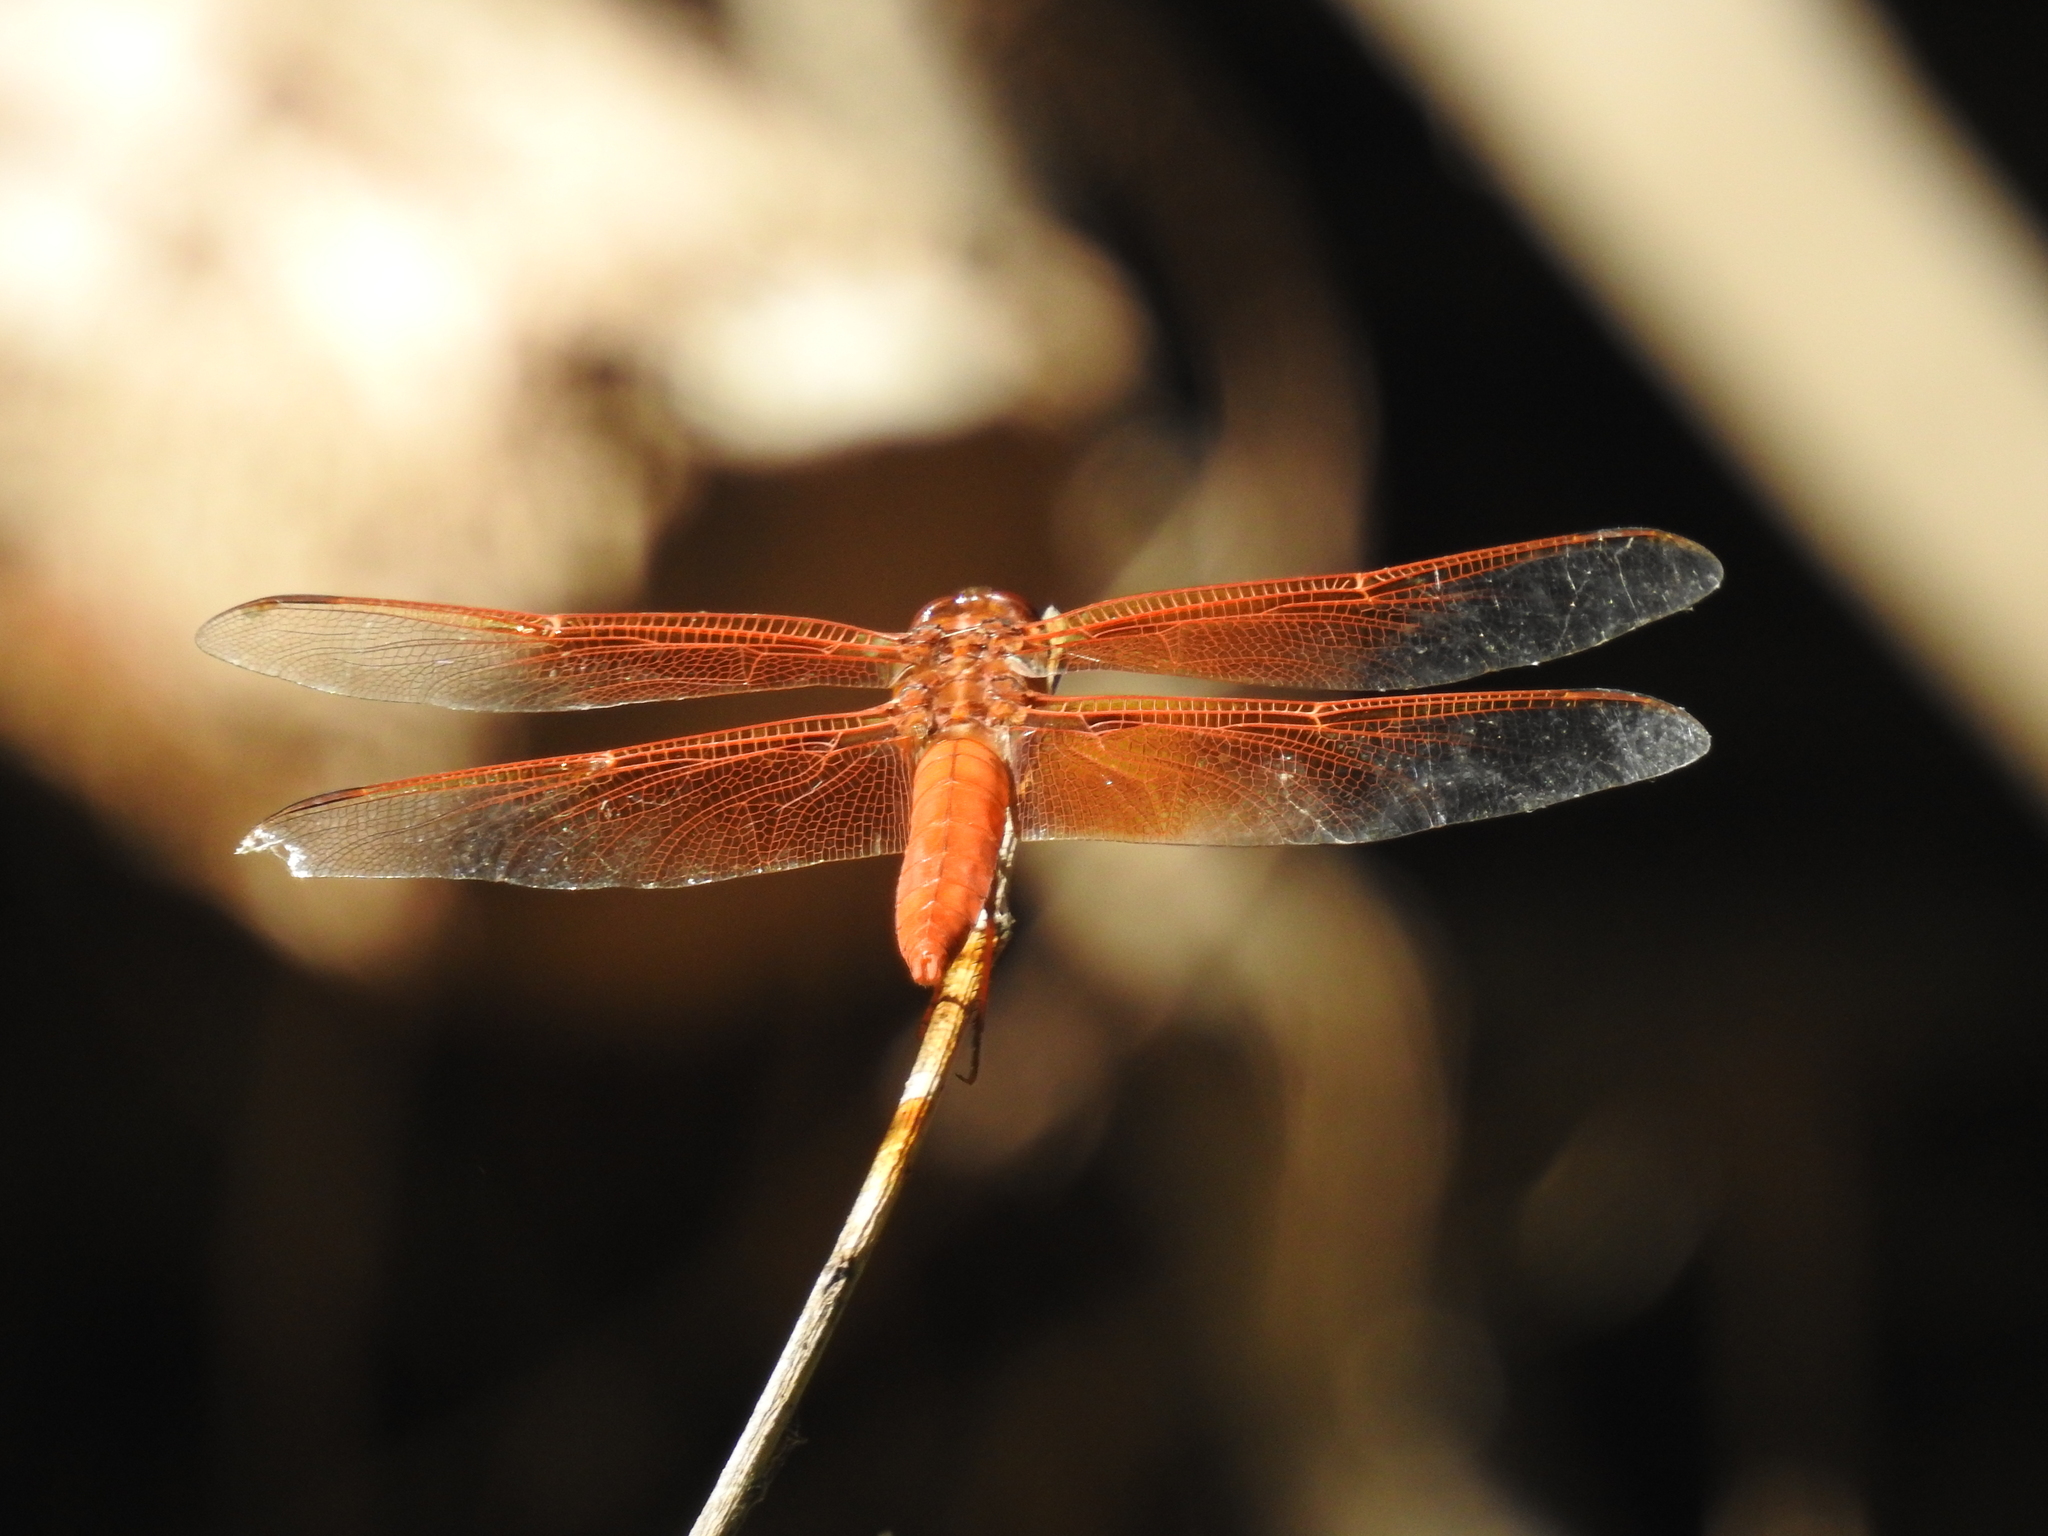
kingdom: Animalia
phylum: Arthropoda
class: Insecta
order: Odonata
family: Libellulidae
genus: Libellula
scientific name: Libellula saturata
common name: Flame skimmer
